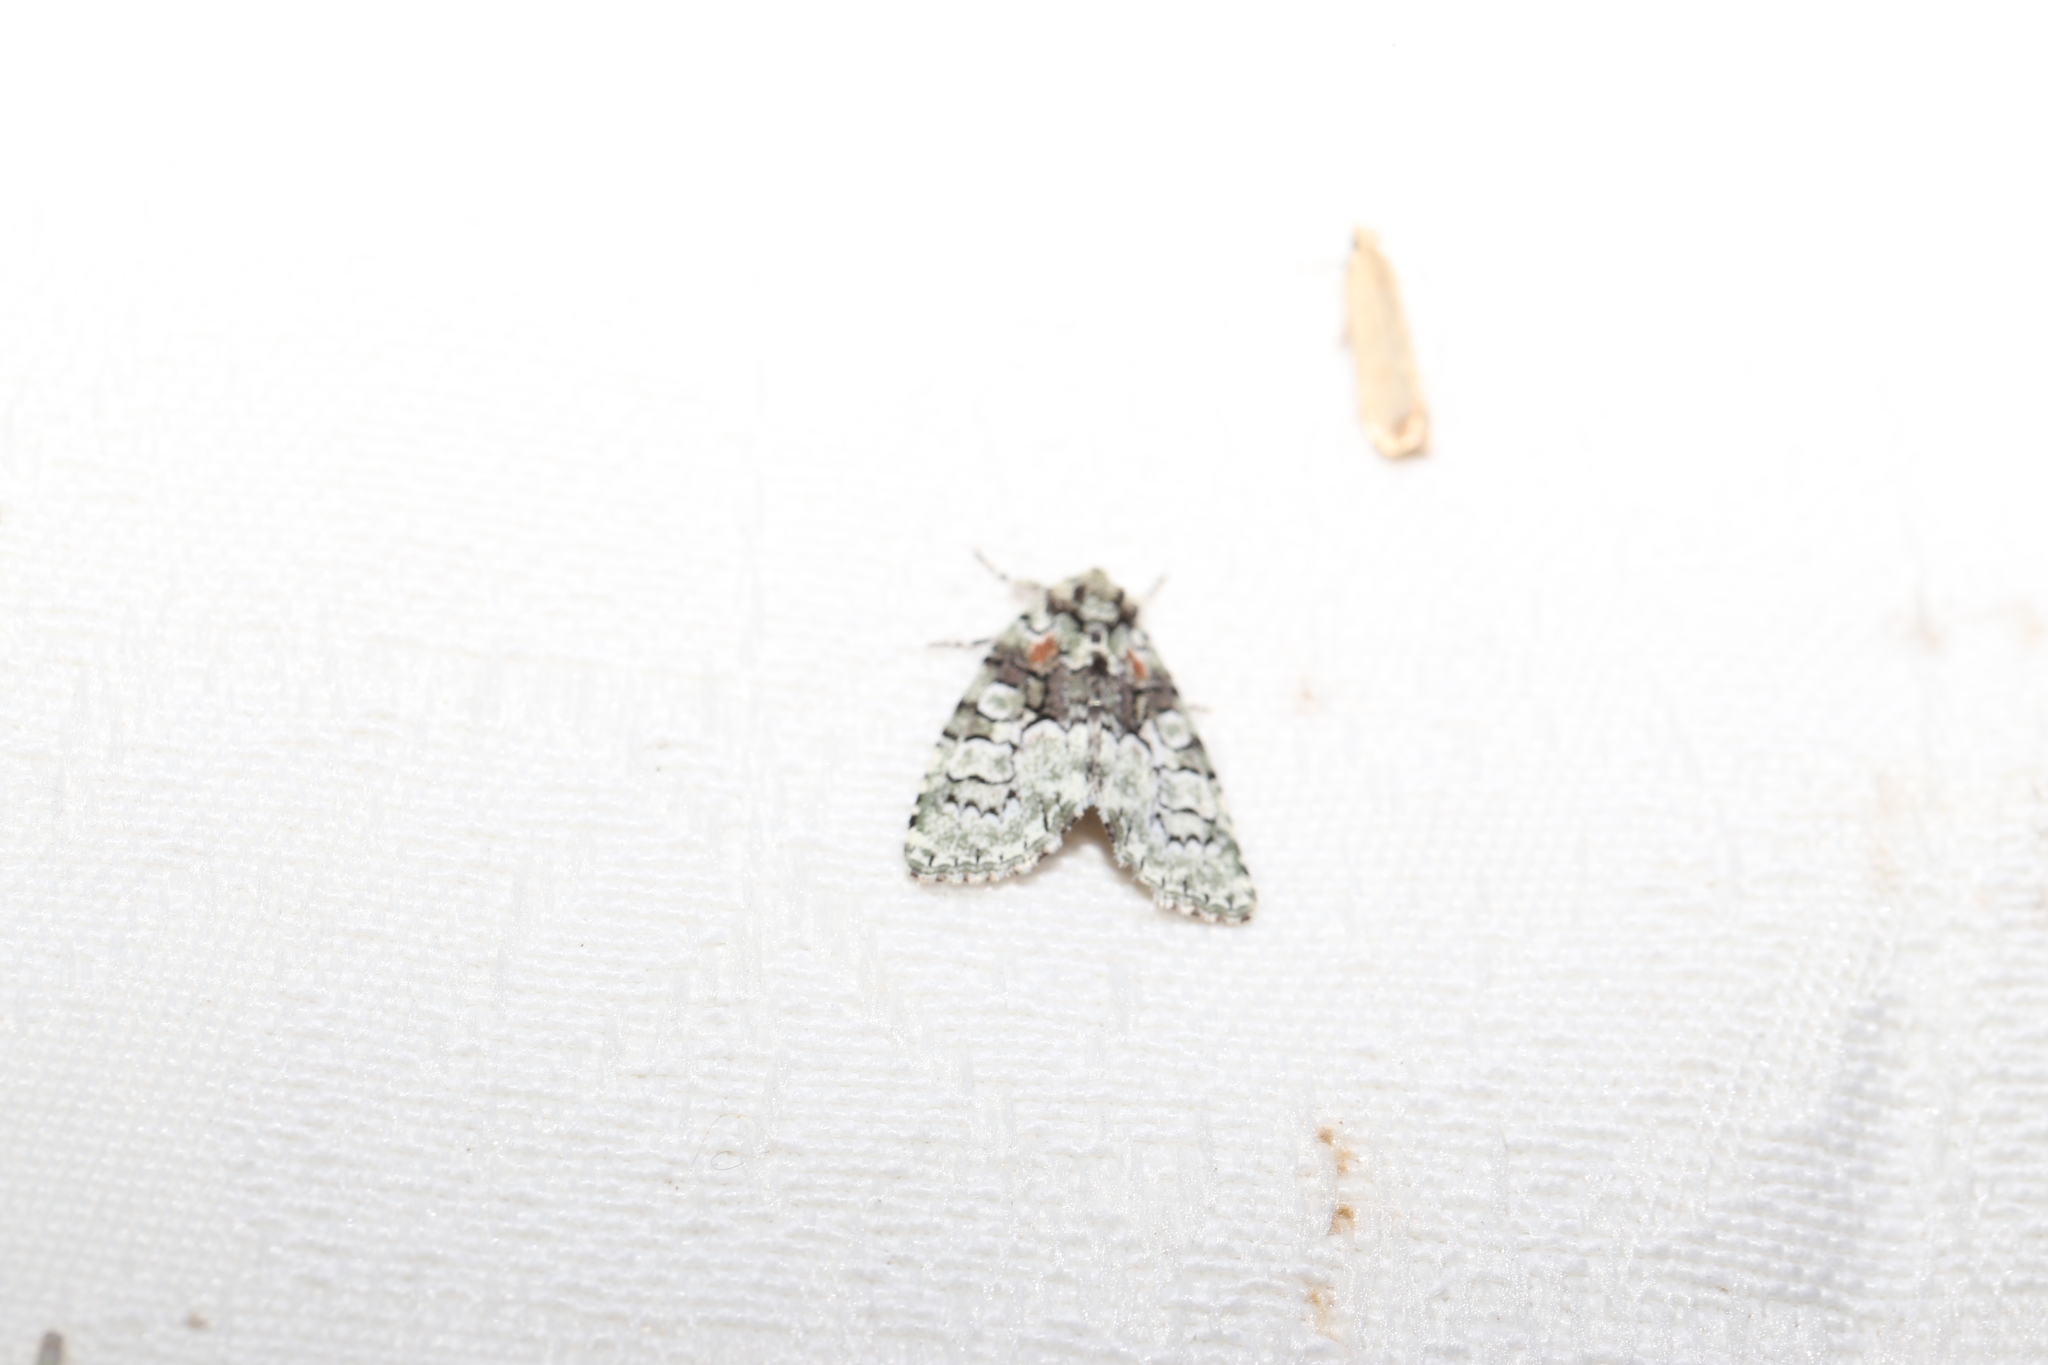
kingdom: Animalia
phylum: Arthropoda
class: Insecta
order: Lepidoptera
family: Noctuidae
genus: Epicyrtica
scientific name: Epicyrtica hippolopha
